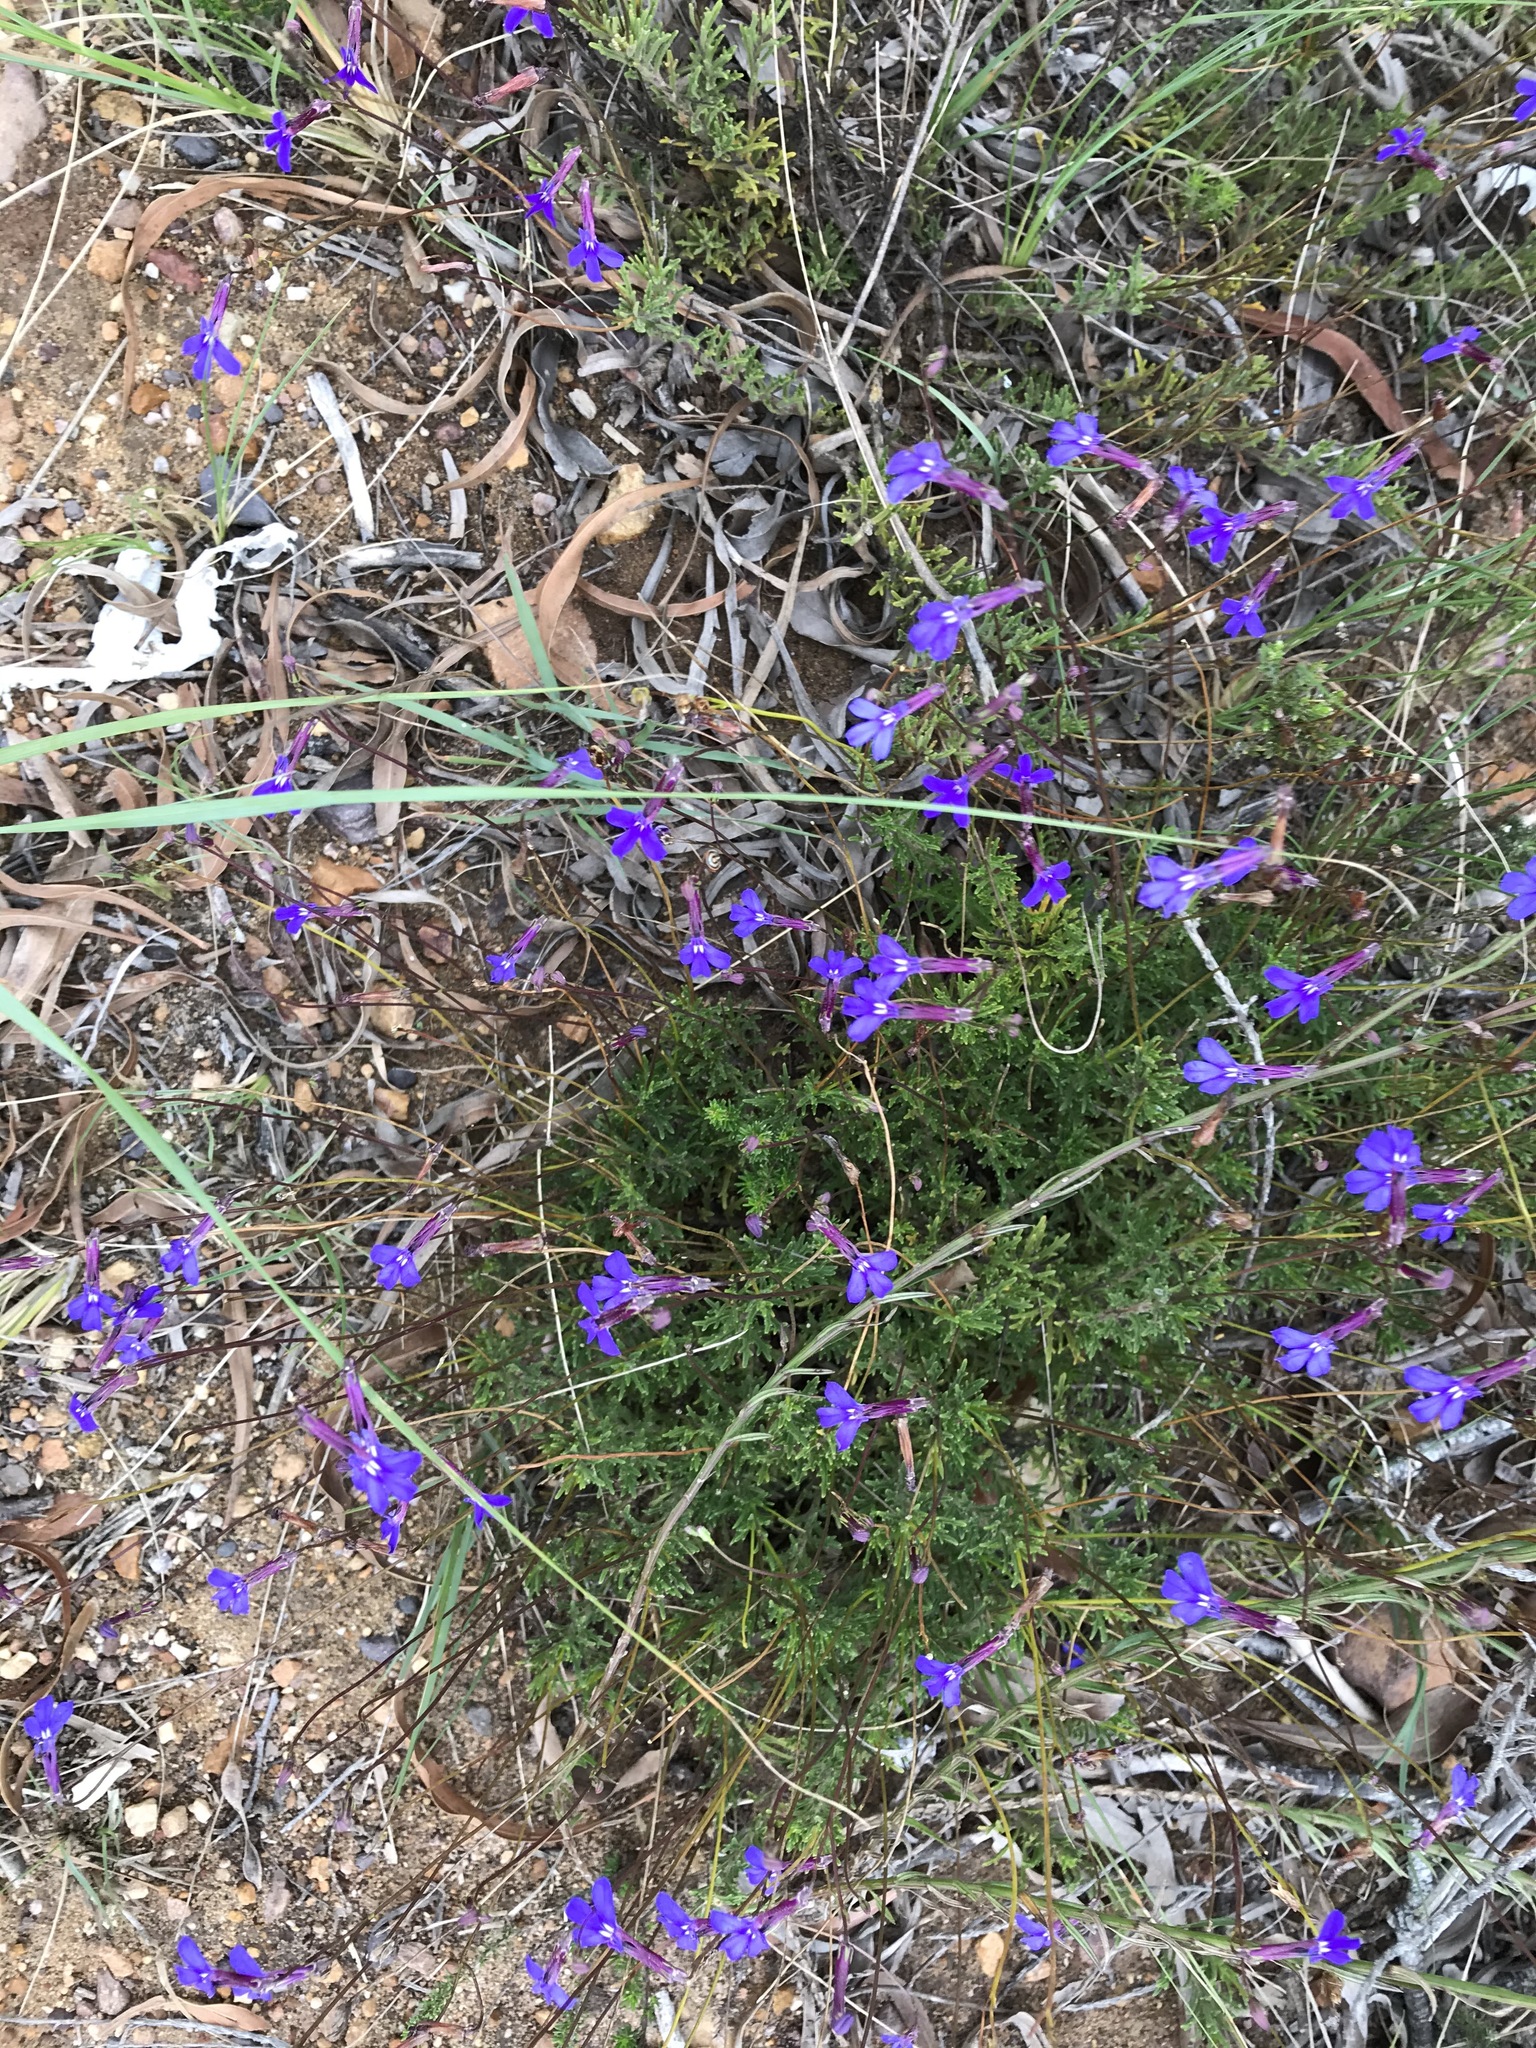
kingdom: Plantae
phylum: Tracheophyta
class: Magnoliopsida
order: Asterales
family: Campanulaceae
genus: Lobelia
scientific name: Lobelia tomentosa
